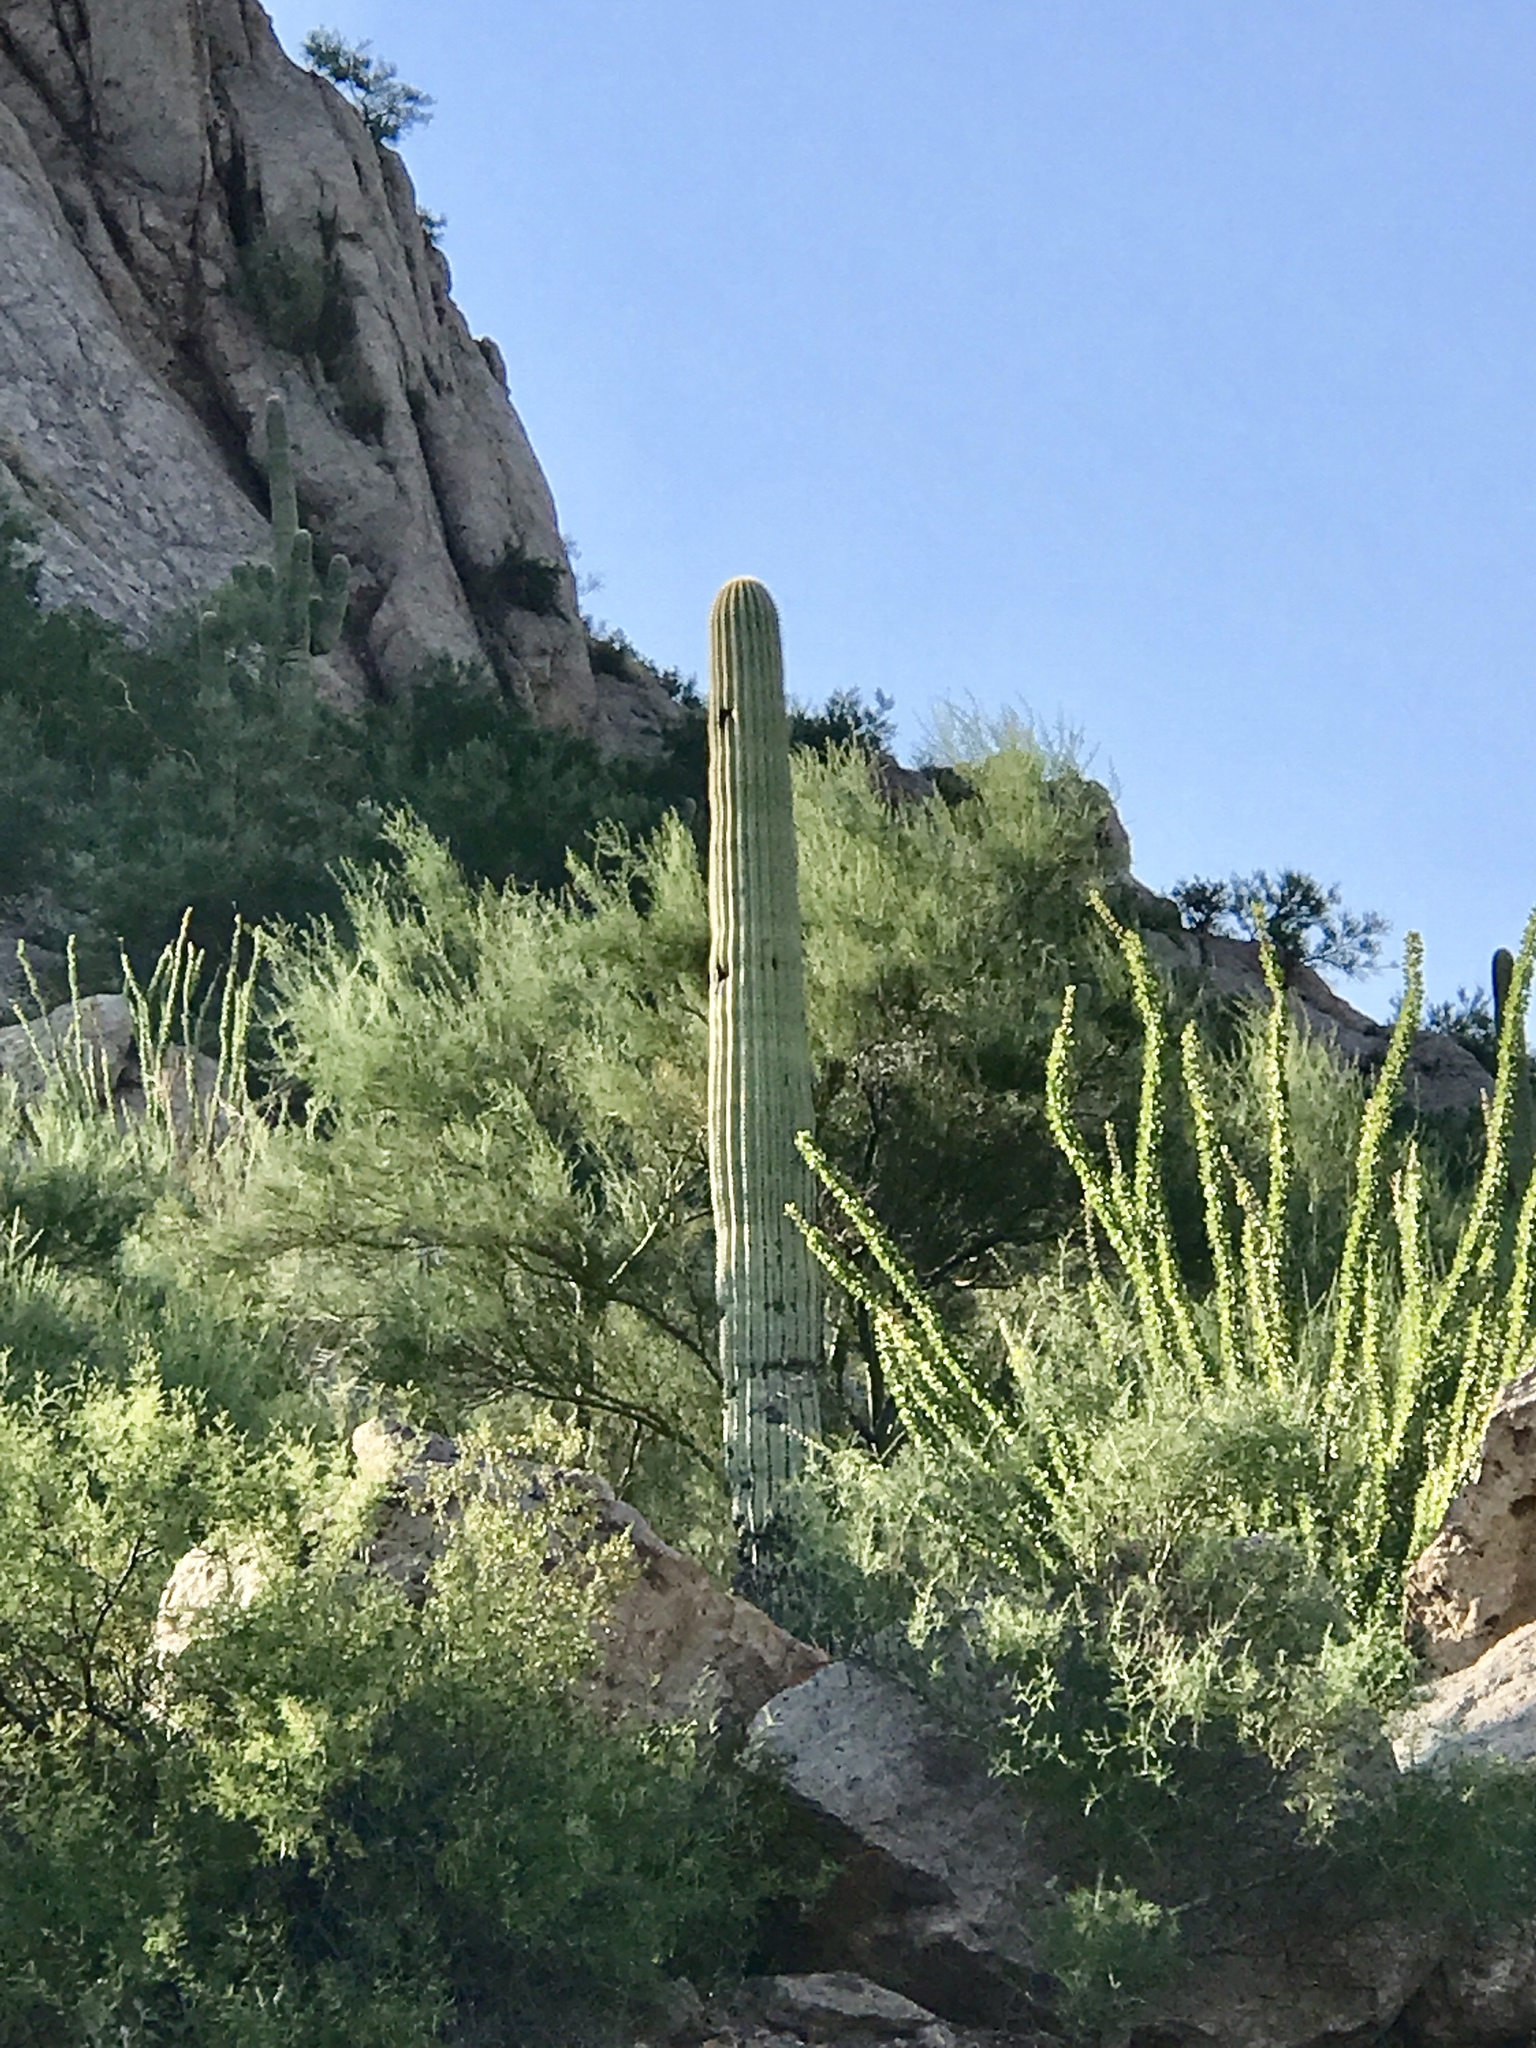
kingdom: Plantae
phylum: Tracheophyta
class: Magnoliopsida
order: Caryophyllales
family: Cactaceae
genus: Carnegiea
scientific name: Carnegiea gigantea
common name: Saguaro
